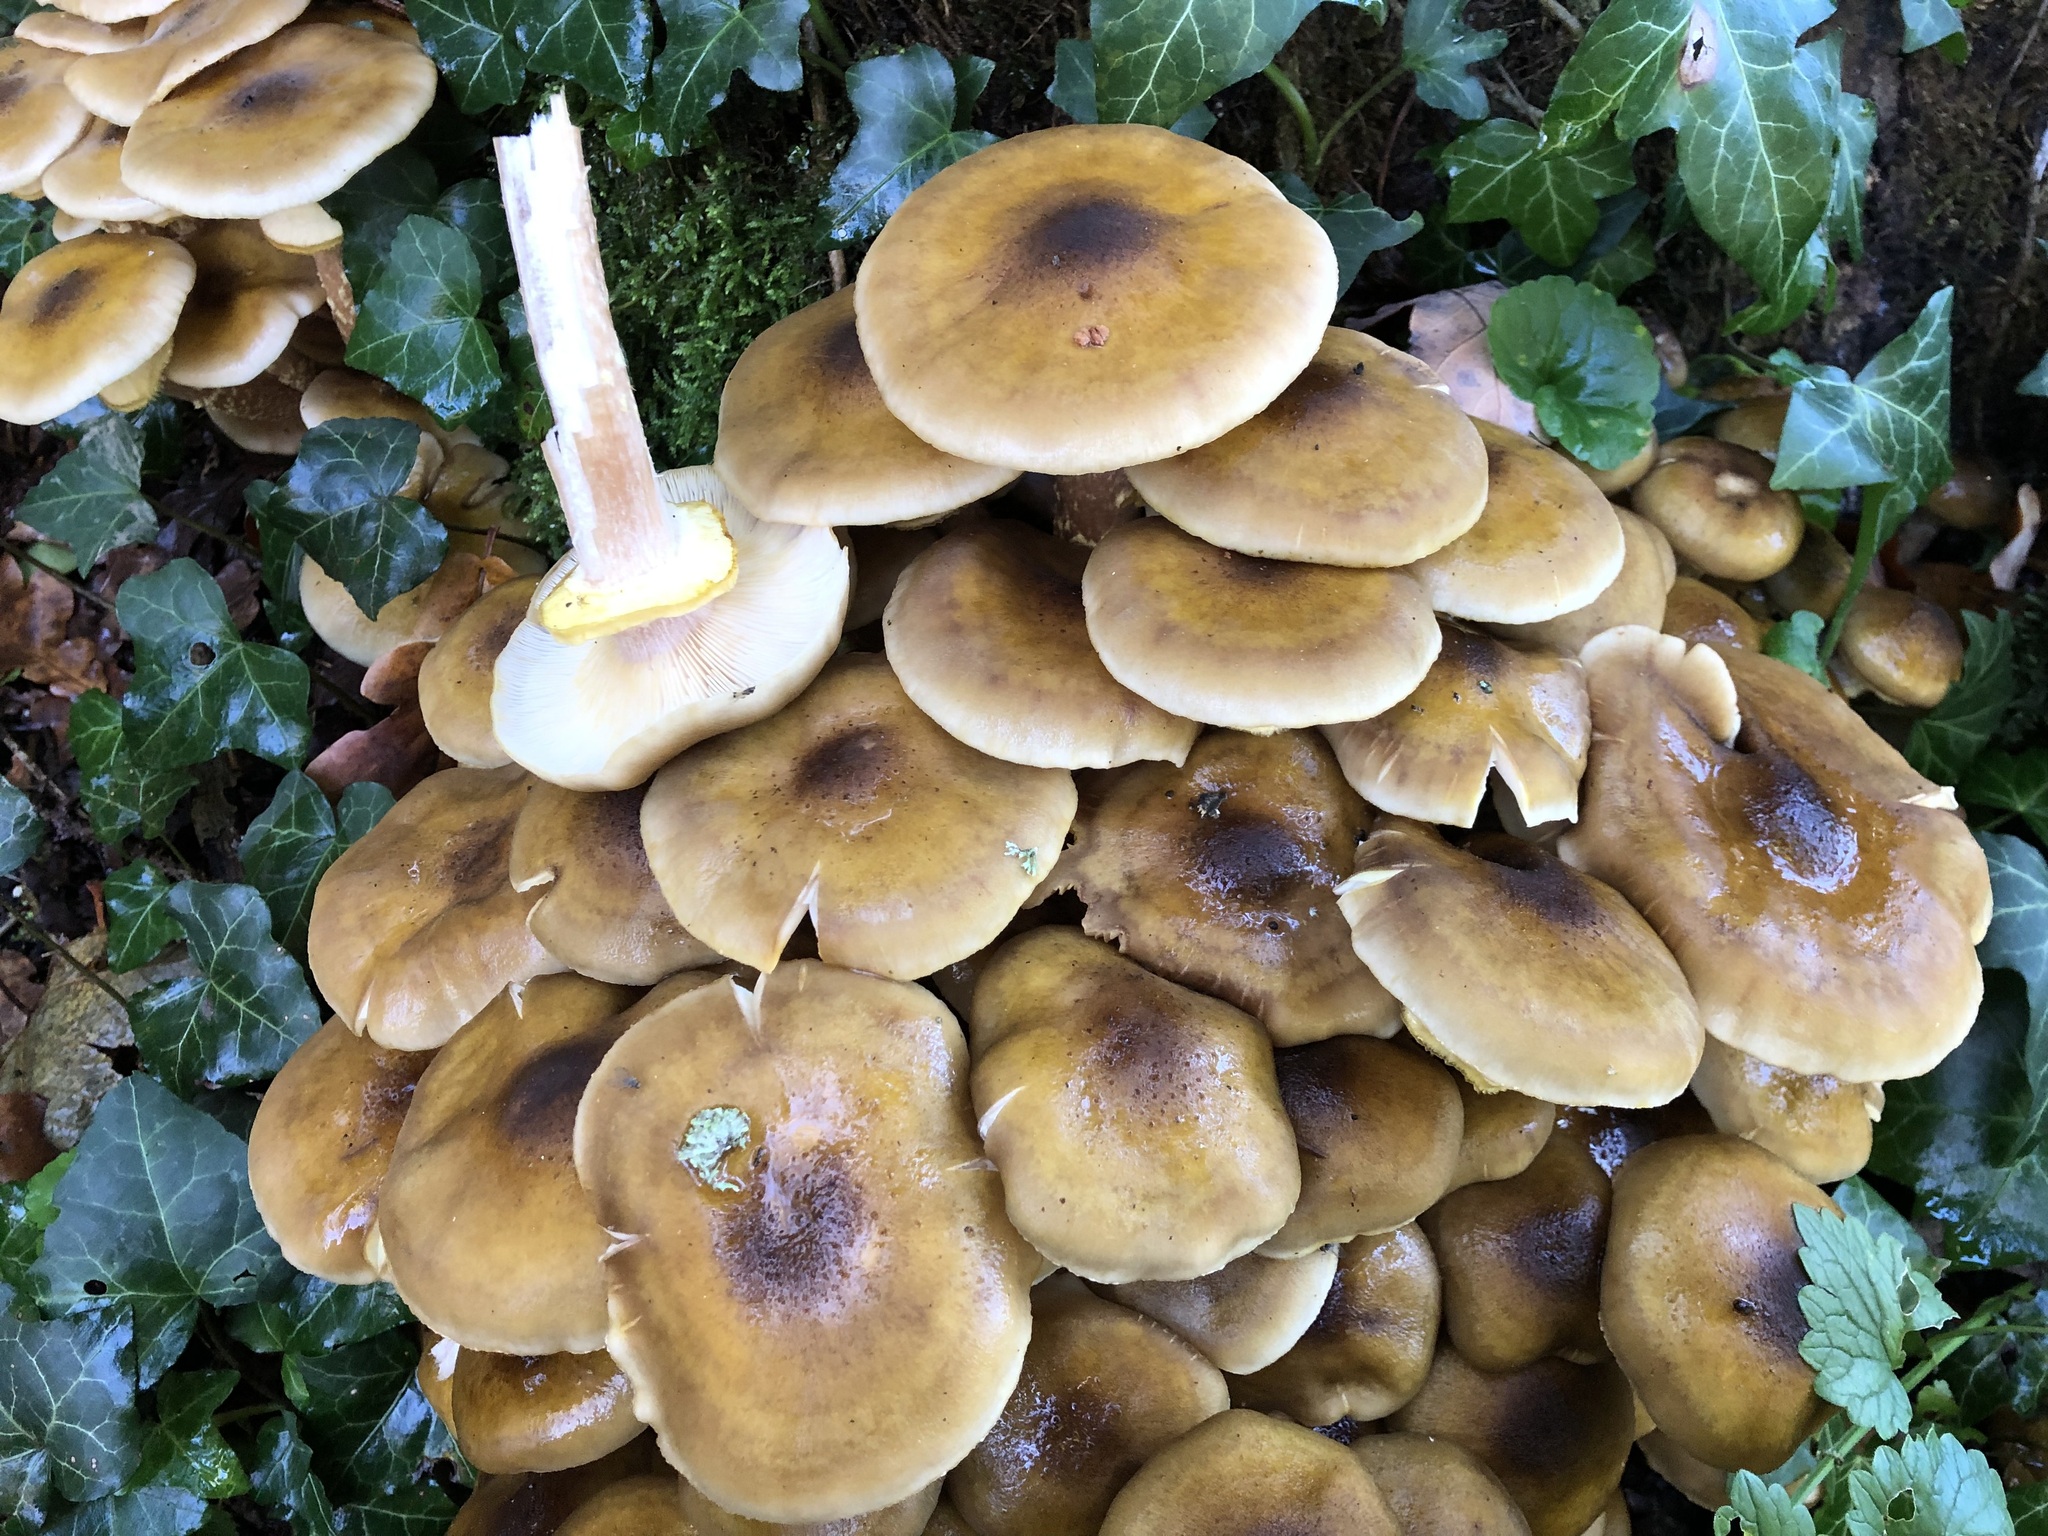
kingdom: Fungi
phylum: Basidiomycota
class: Agaricomycetes
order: Agaricales
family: Physalacriaceae
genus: Armillaria
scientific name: Armillaria mellea
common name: Honey fungus
